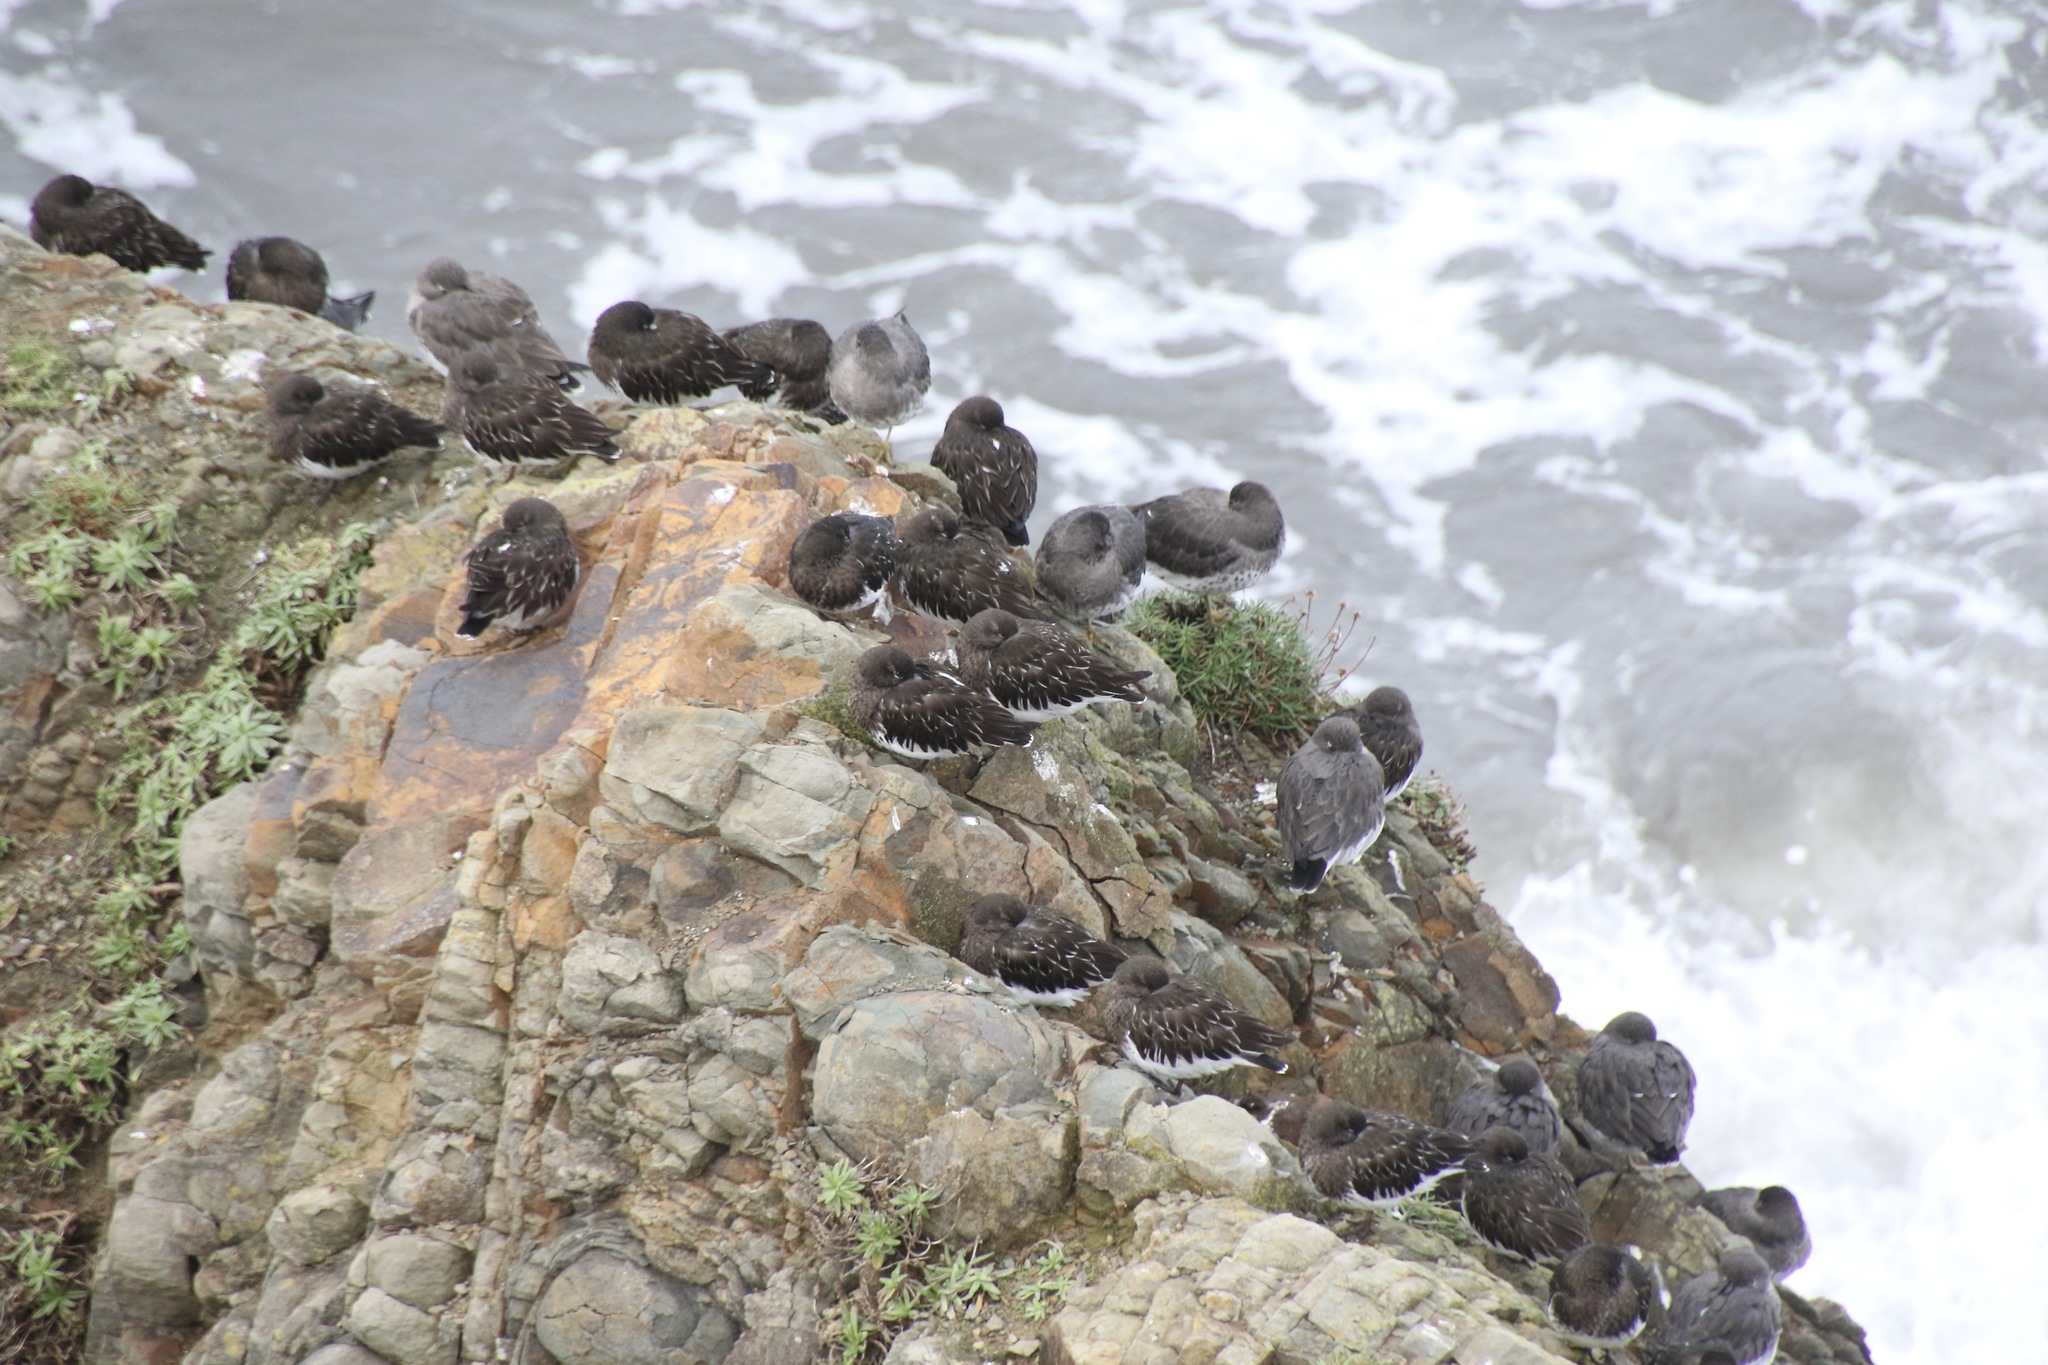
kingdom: Animalia
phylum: Chordata
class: Aves
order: Charadriiformes
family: Scolopacidae
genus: Arenaria
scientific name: Arenaria melanocephala
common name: Black turnstone
